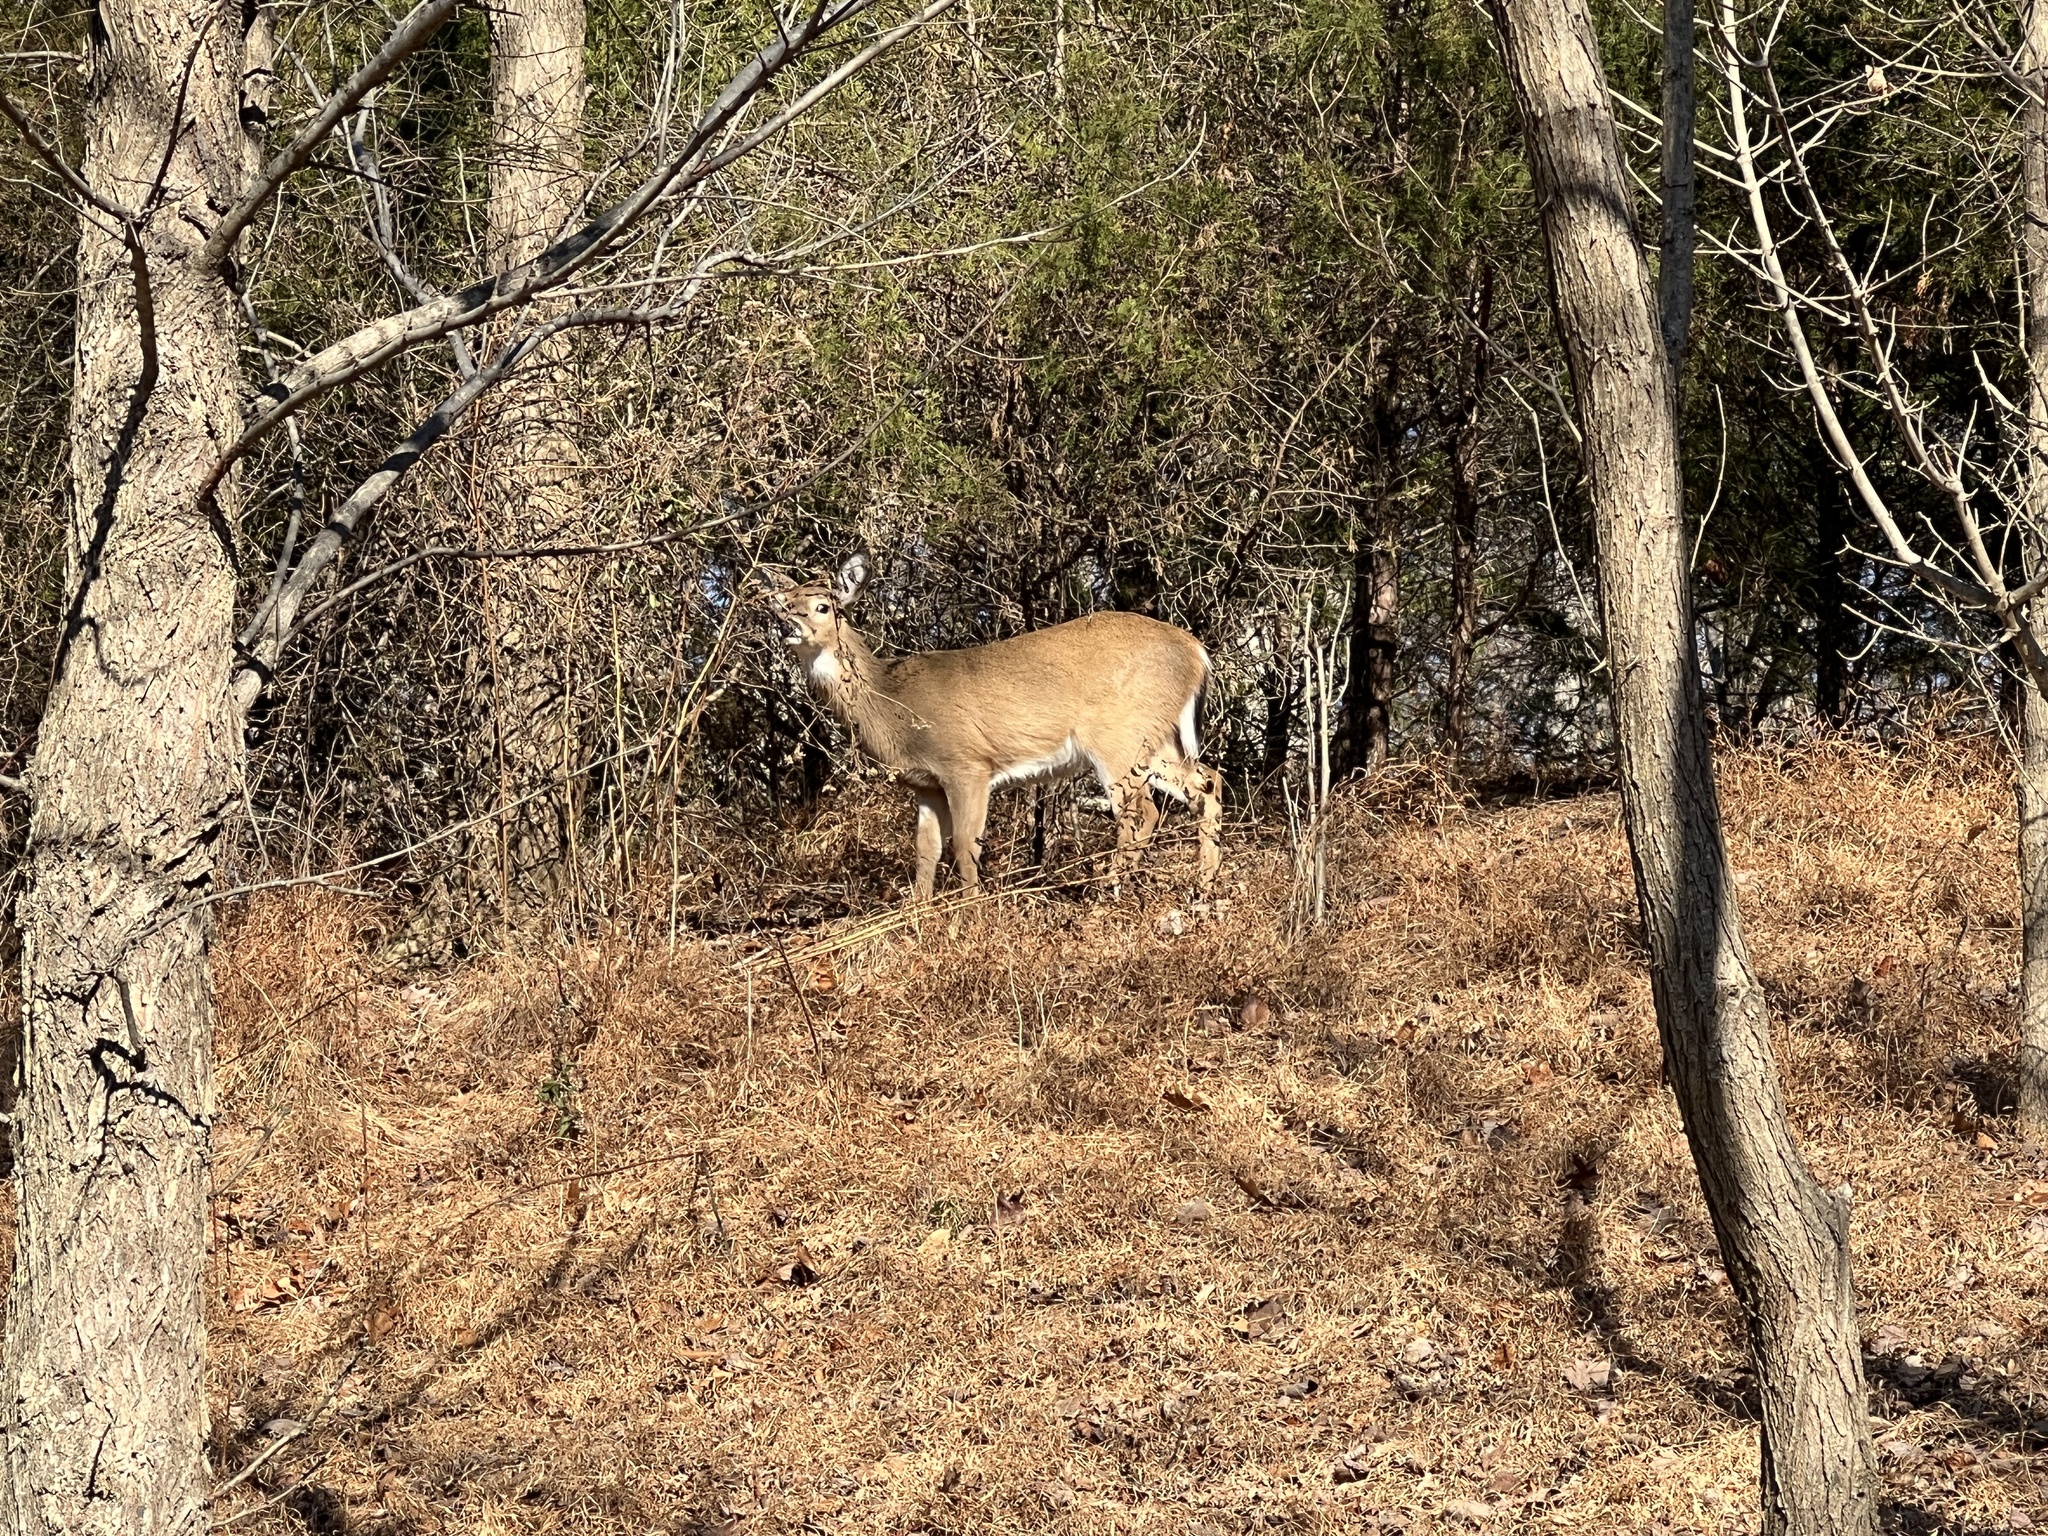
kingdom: Animalia
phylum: Chordata
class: Mammalia
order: Artiodactyla
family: Cervidae
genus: Odocoileus
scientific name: Odocoileus virginianus
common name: White-tailed deer
